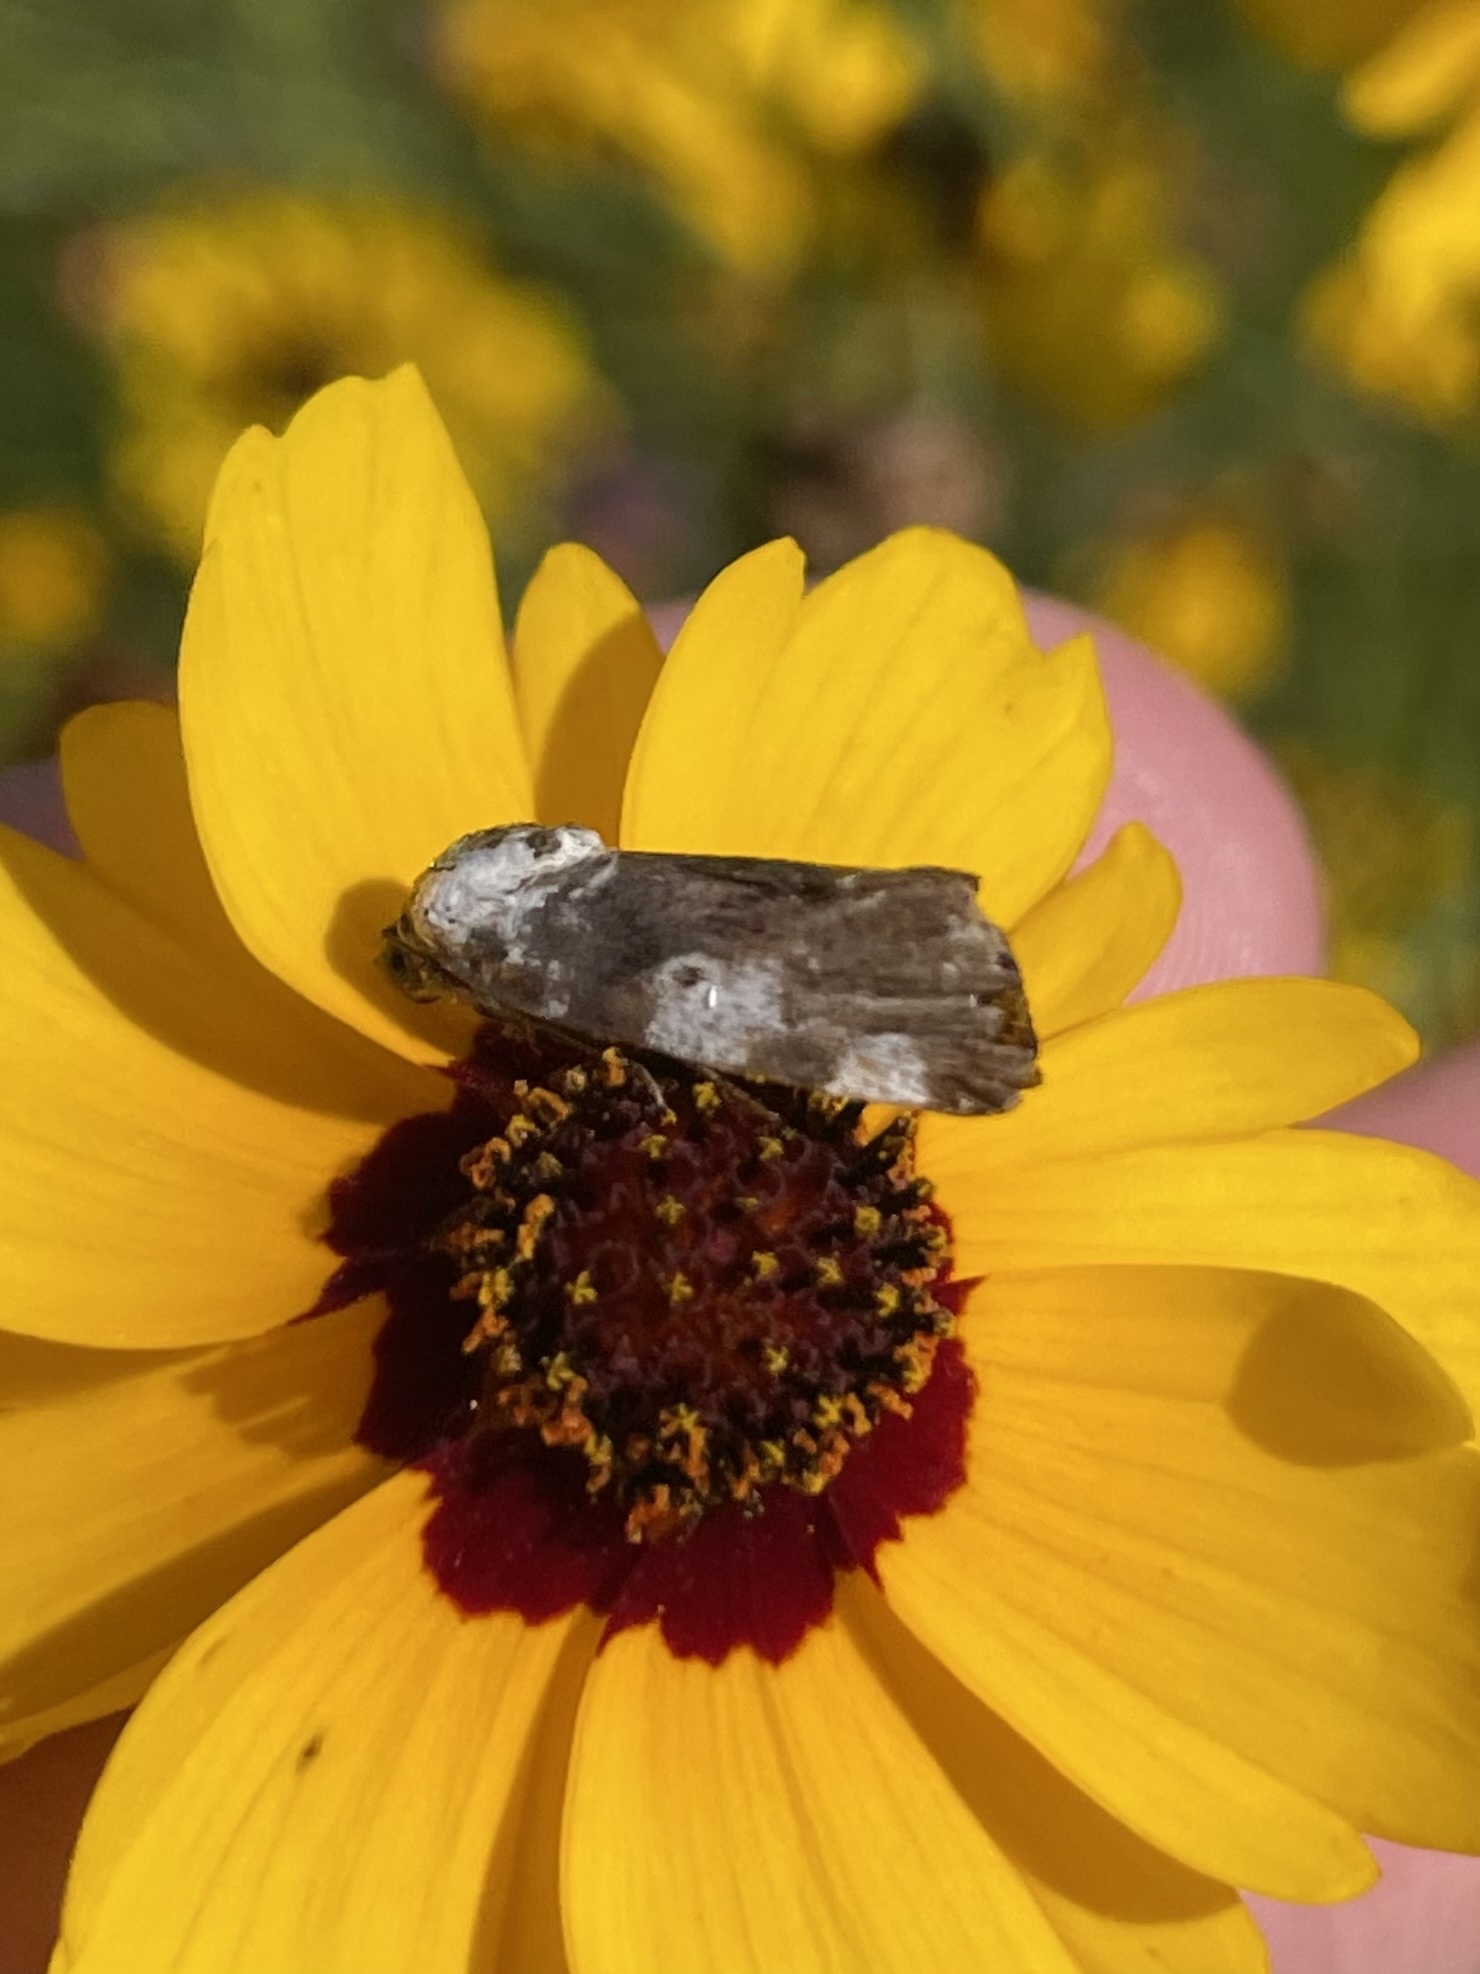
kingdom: Animalia
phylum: Arthropoda
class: Insecta
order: Lepidoptera
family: Noctuidae
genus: Acontia
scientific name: Acontia aprica
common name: Nun
